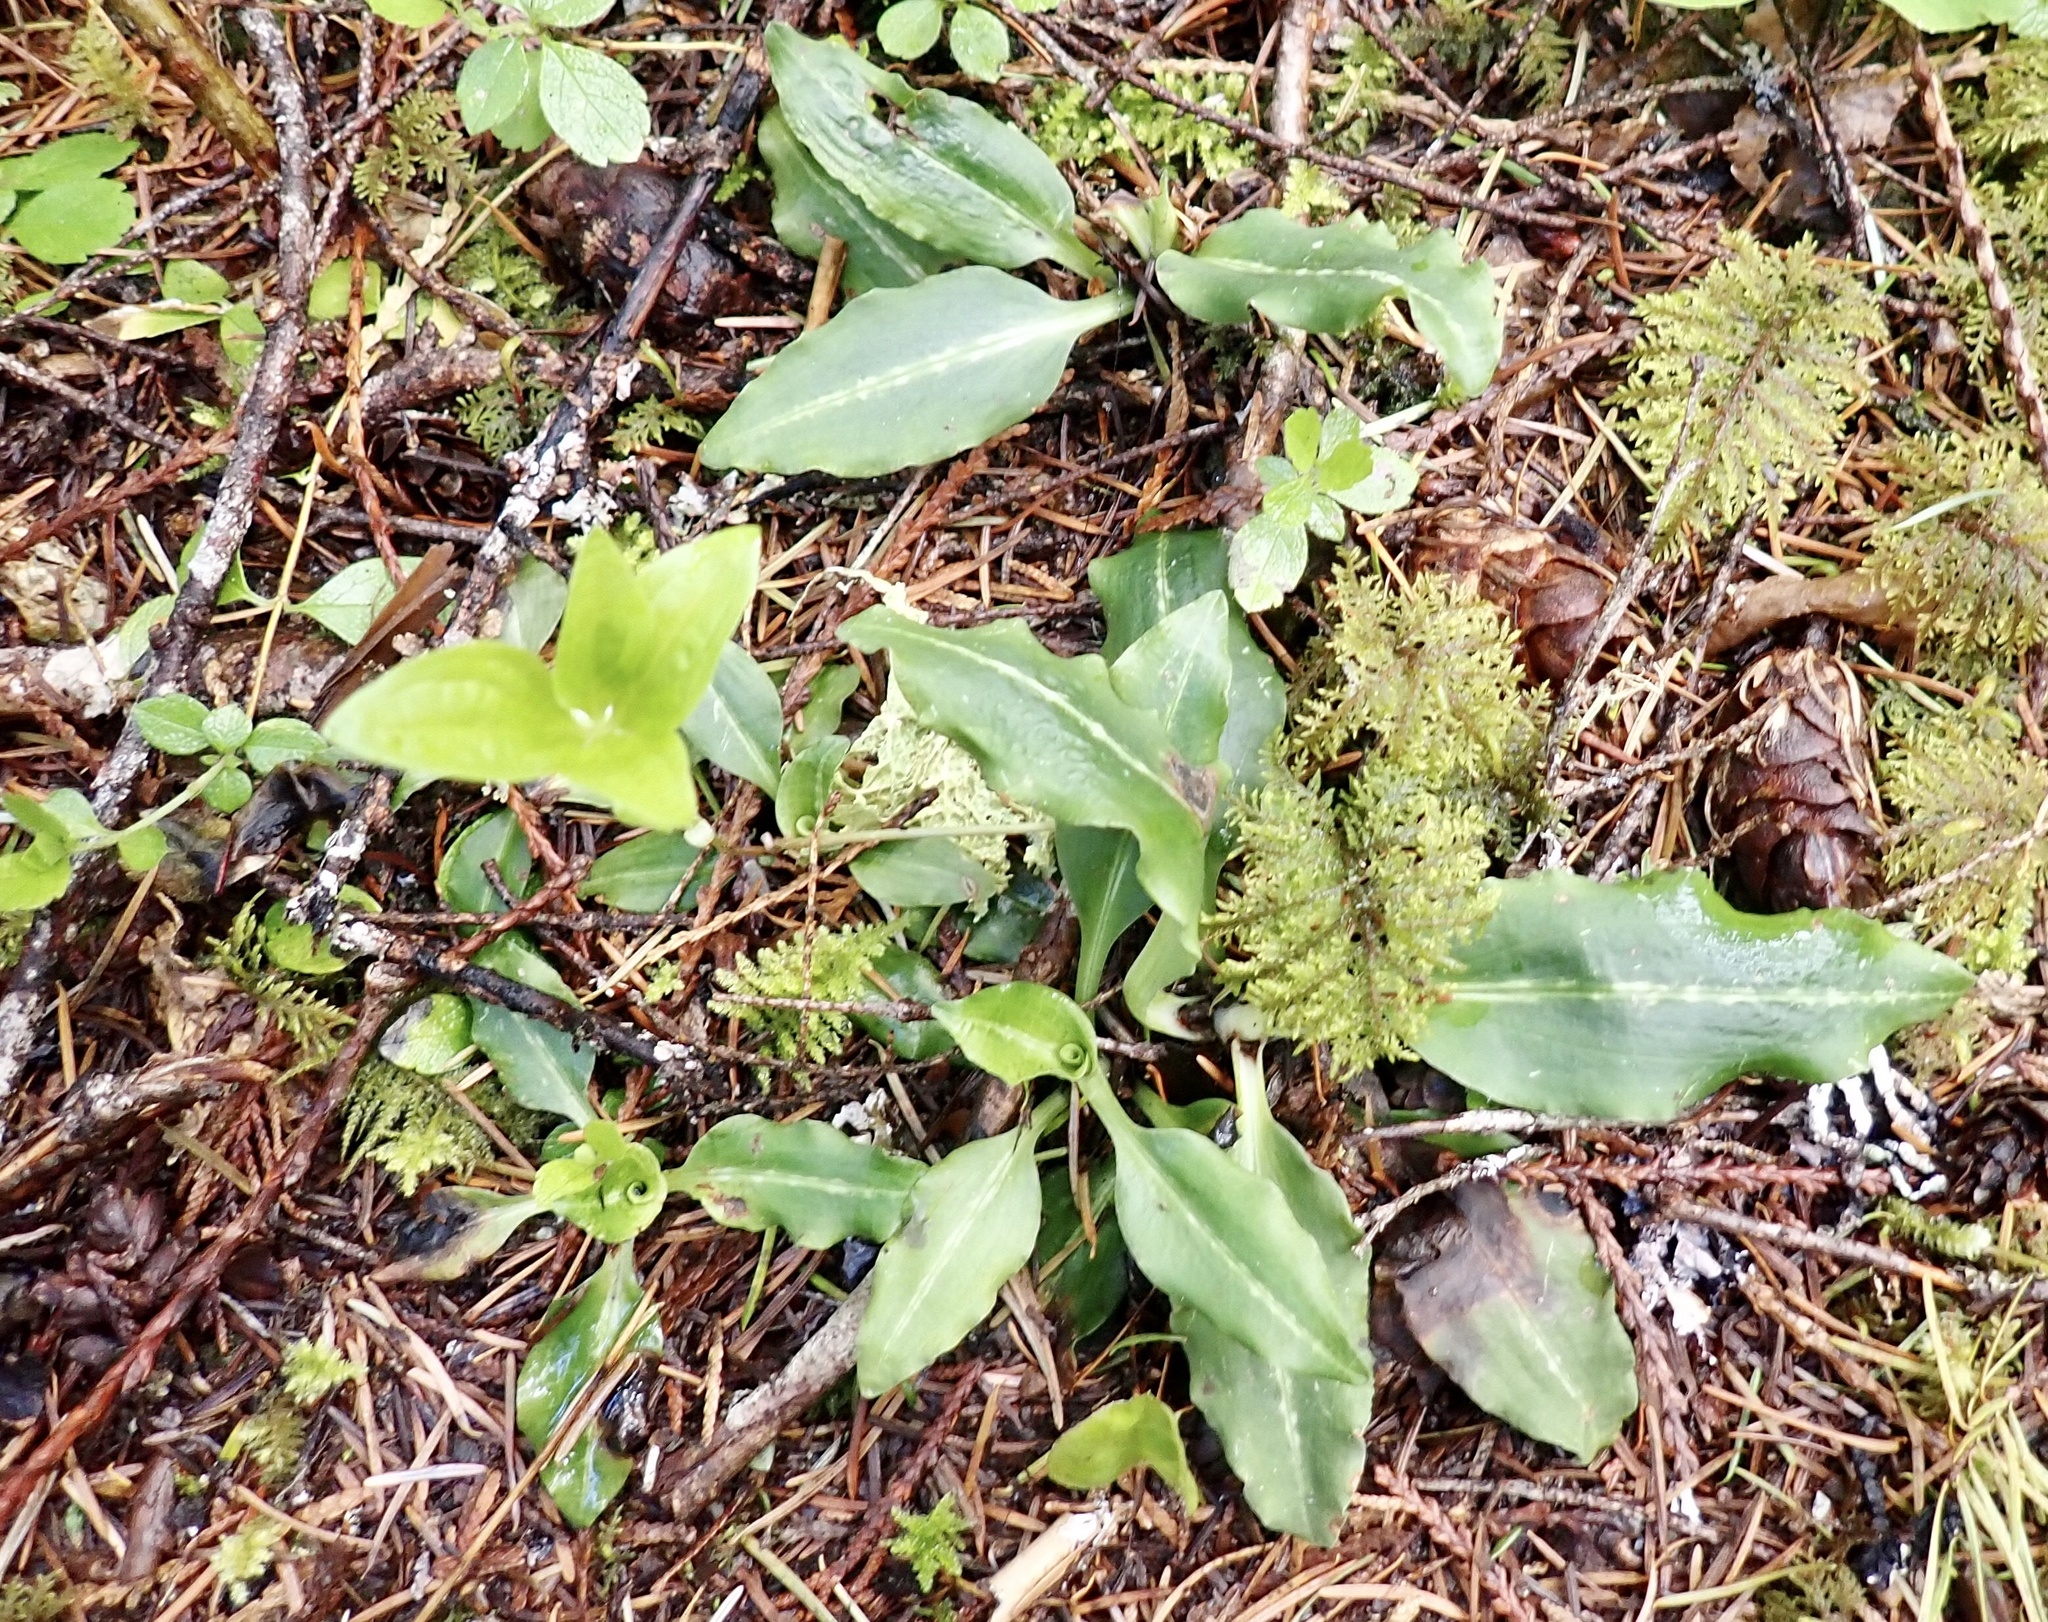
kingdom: Plantae
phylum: Tracheophyta
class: Liliopsida
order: Asparagales
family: Orchidaceae
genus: Goodyera
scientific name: Goodyera oblongifolia
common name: Giant rattlesnake-plantain
